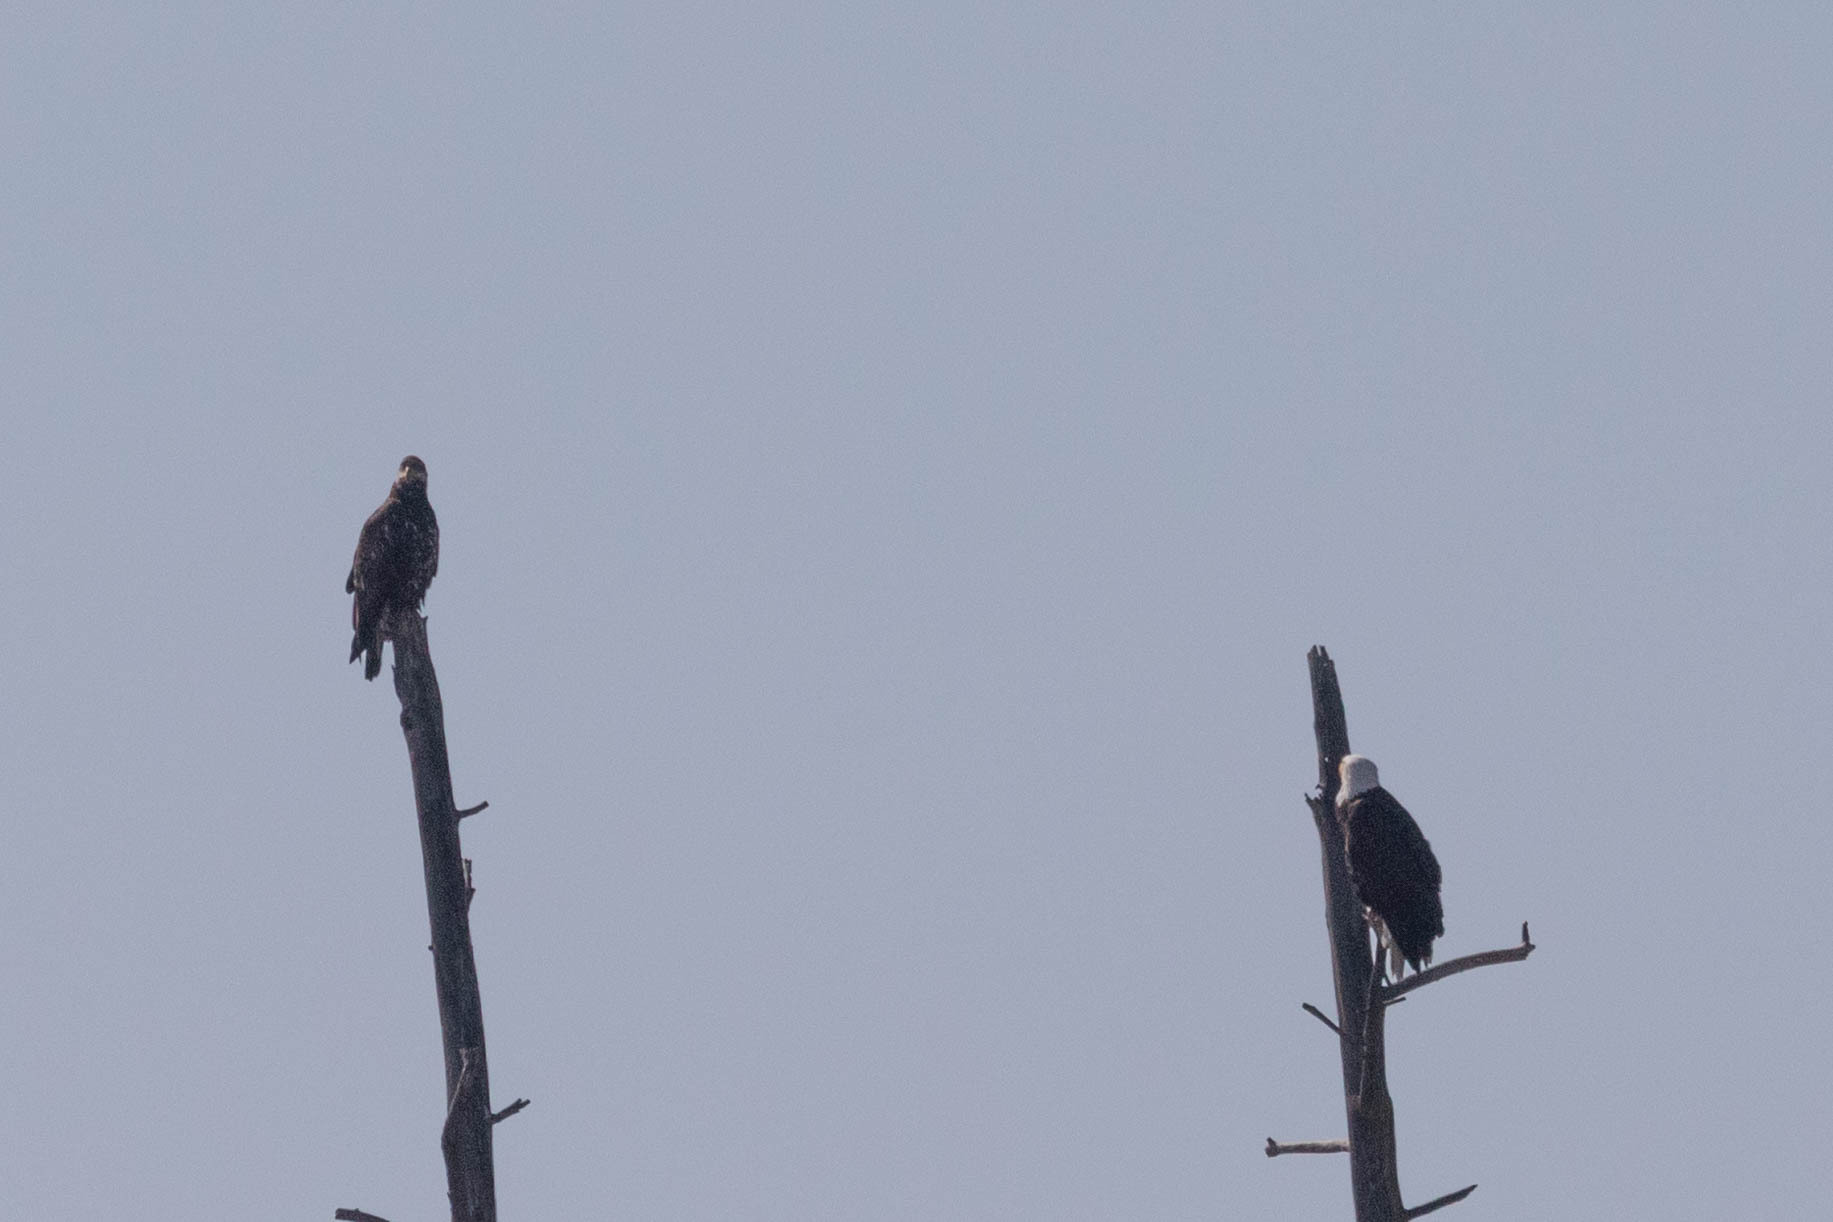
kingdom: Animalia
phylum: Chordata
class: Aves
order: Accipitriformes
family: Accipitridae
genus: Haliaeetus
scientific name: Haliaeetus leucocephalus
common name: Bald eagle
